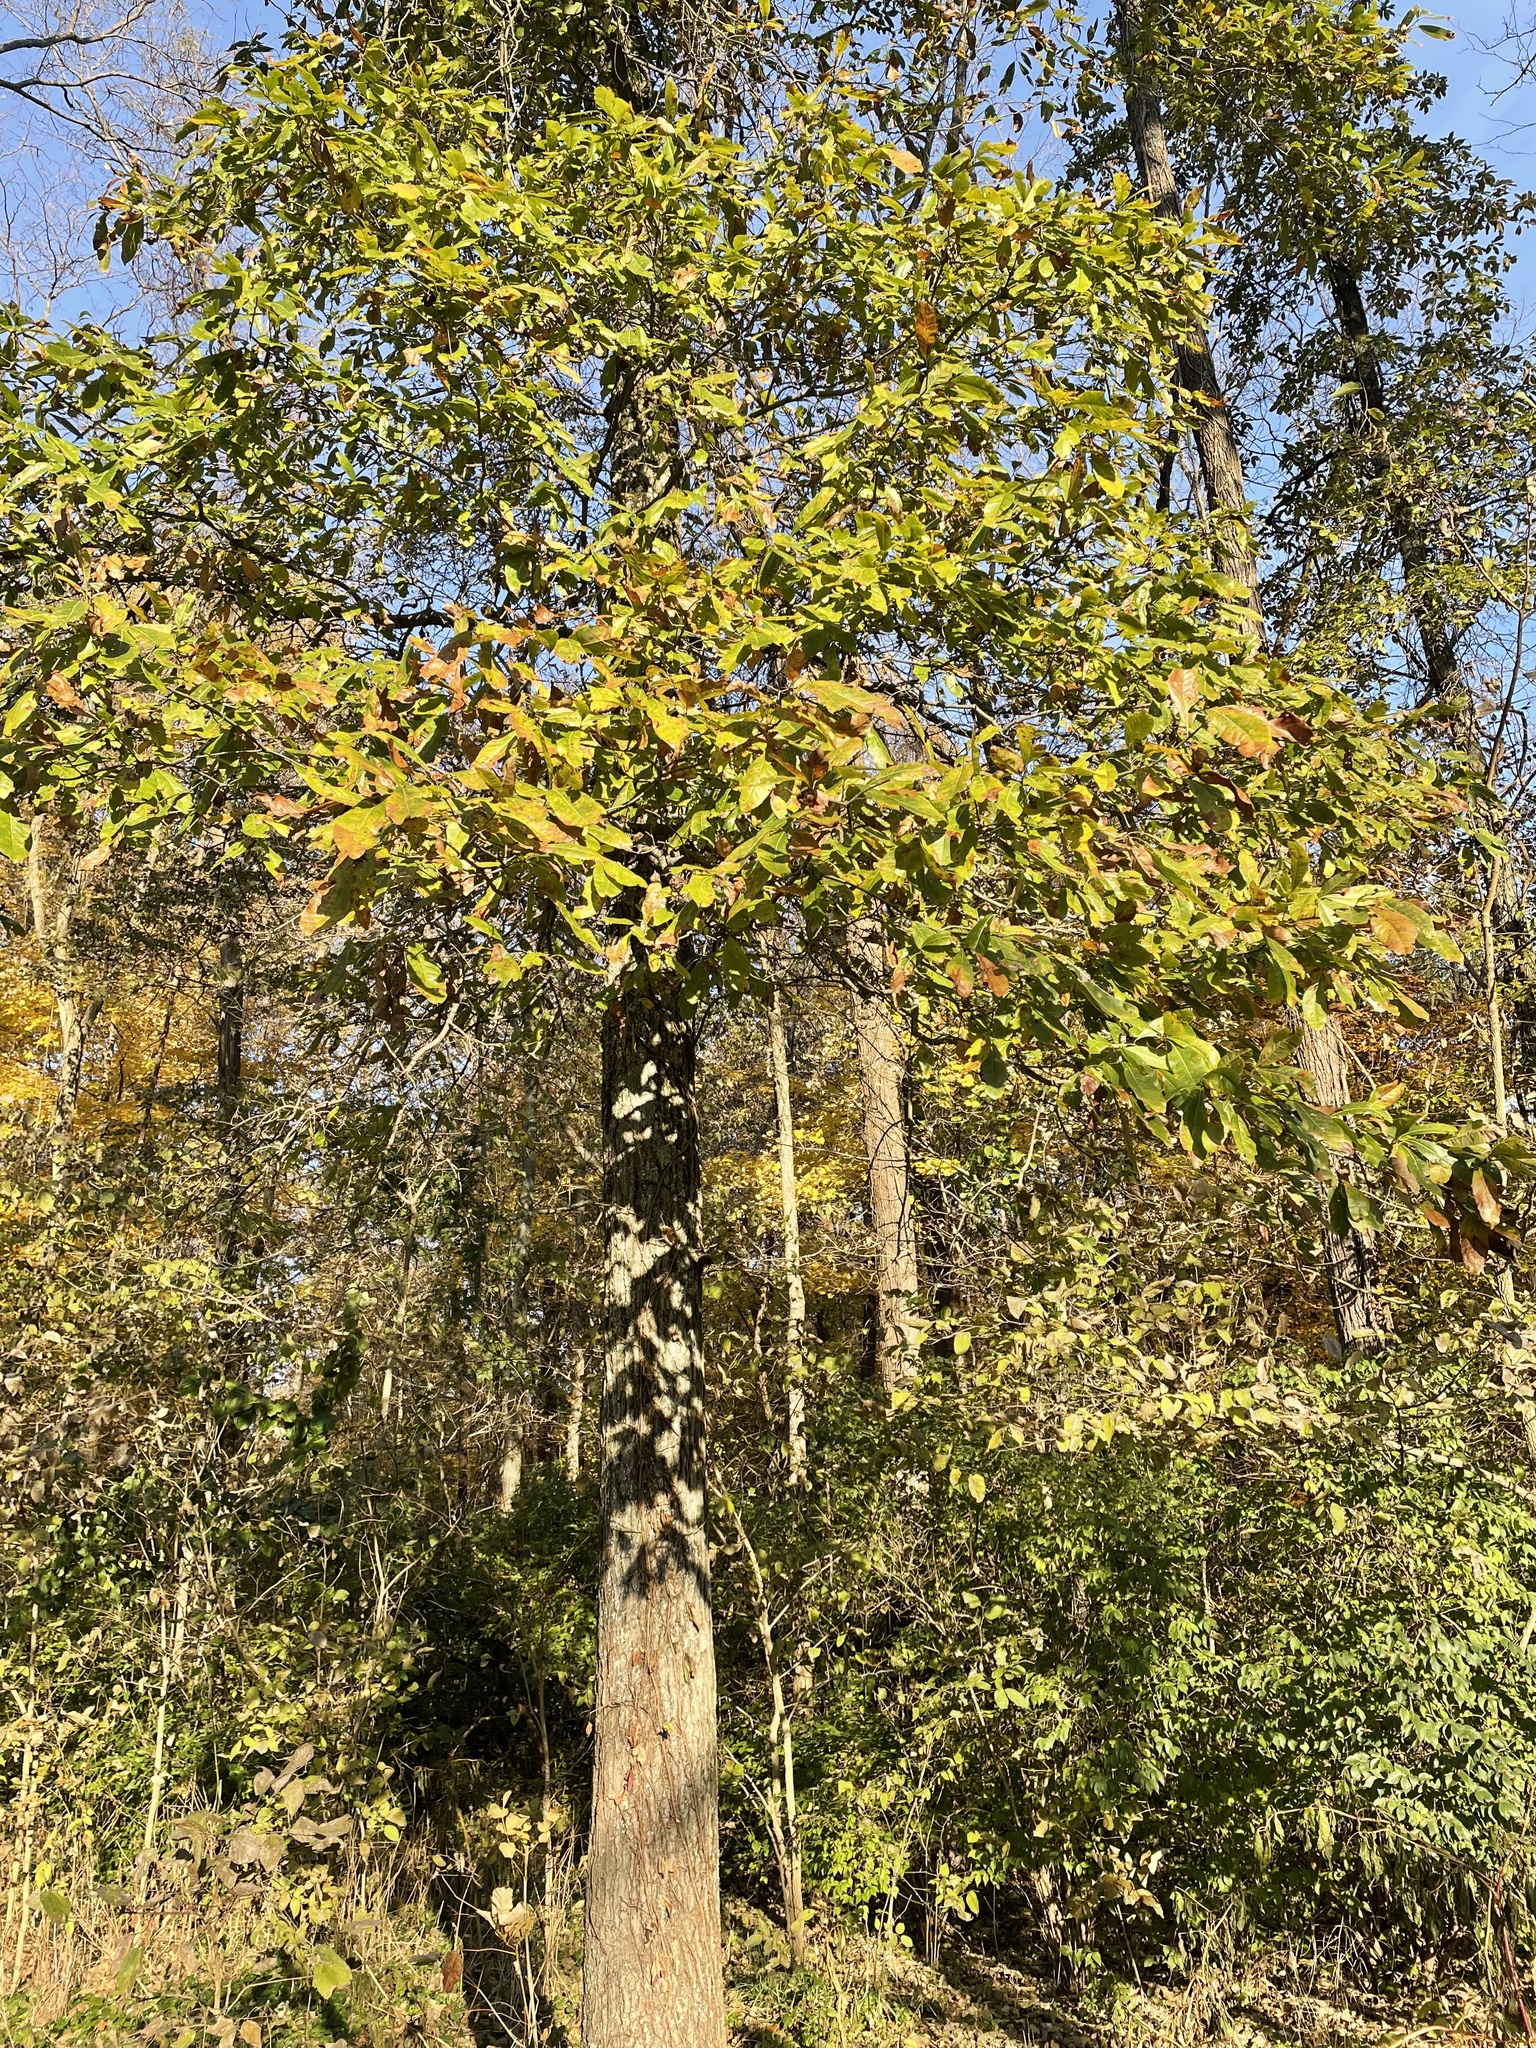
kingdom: Plantae
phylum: Tracheophyta
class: Magnoliopsida
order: Fagales
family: Fagaceae
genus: Quercus
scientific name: Quercus imbricaria
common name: Shingle oak
